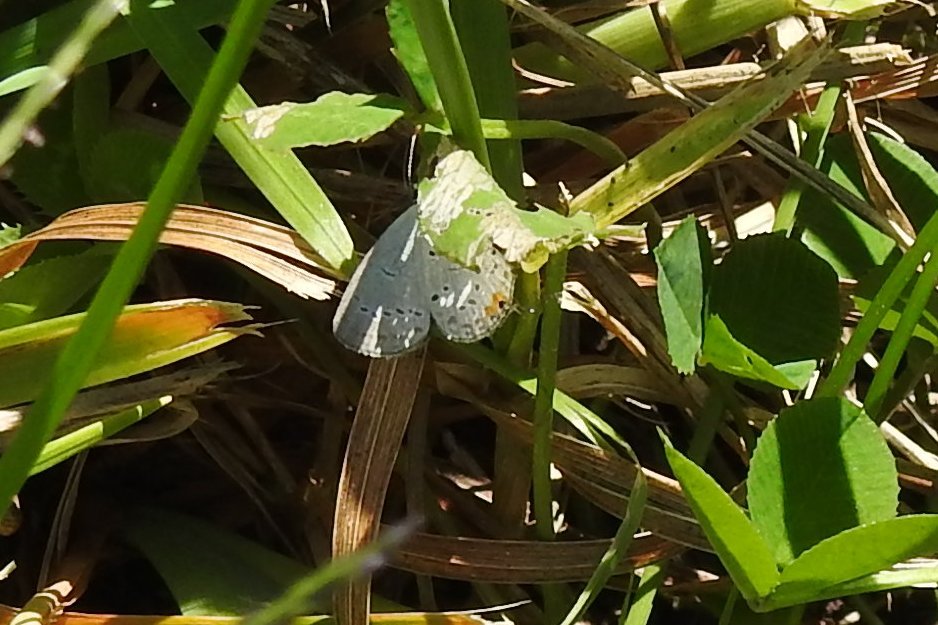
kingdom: Animalia
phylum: Arthropoda
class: Insecta
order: Lepidoptera
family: Lycaenidae
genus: Elkalyce
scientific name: Elkalyce comyntas
